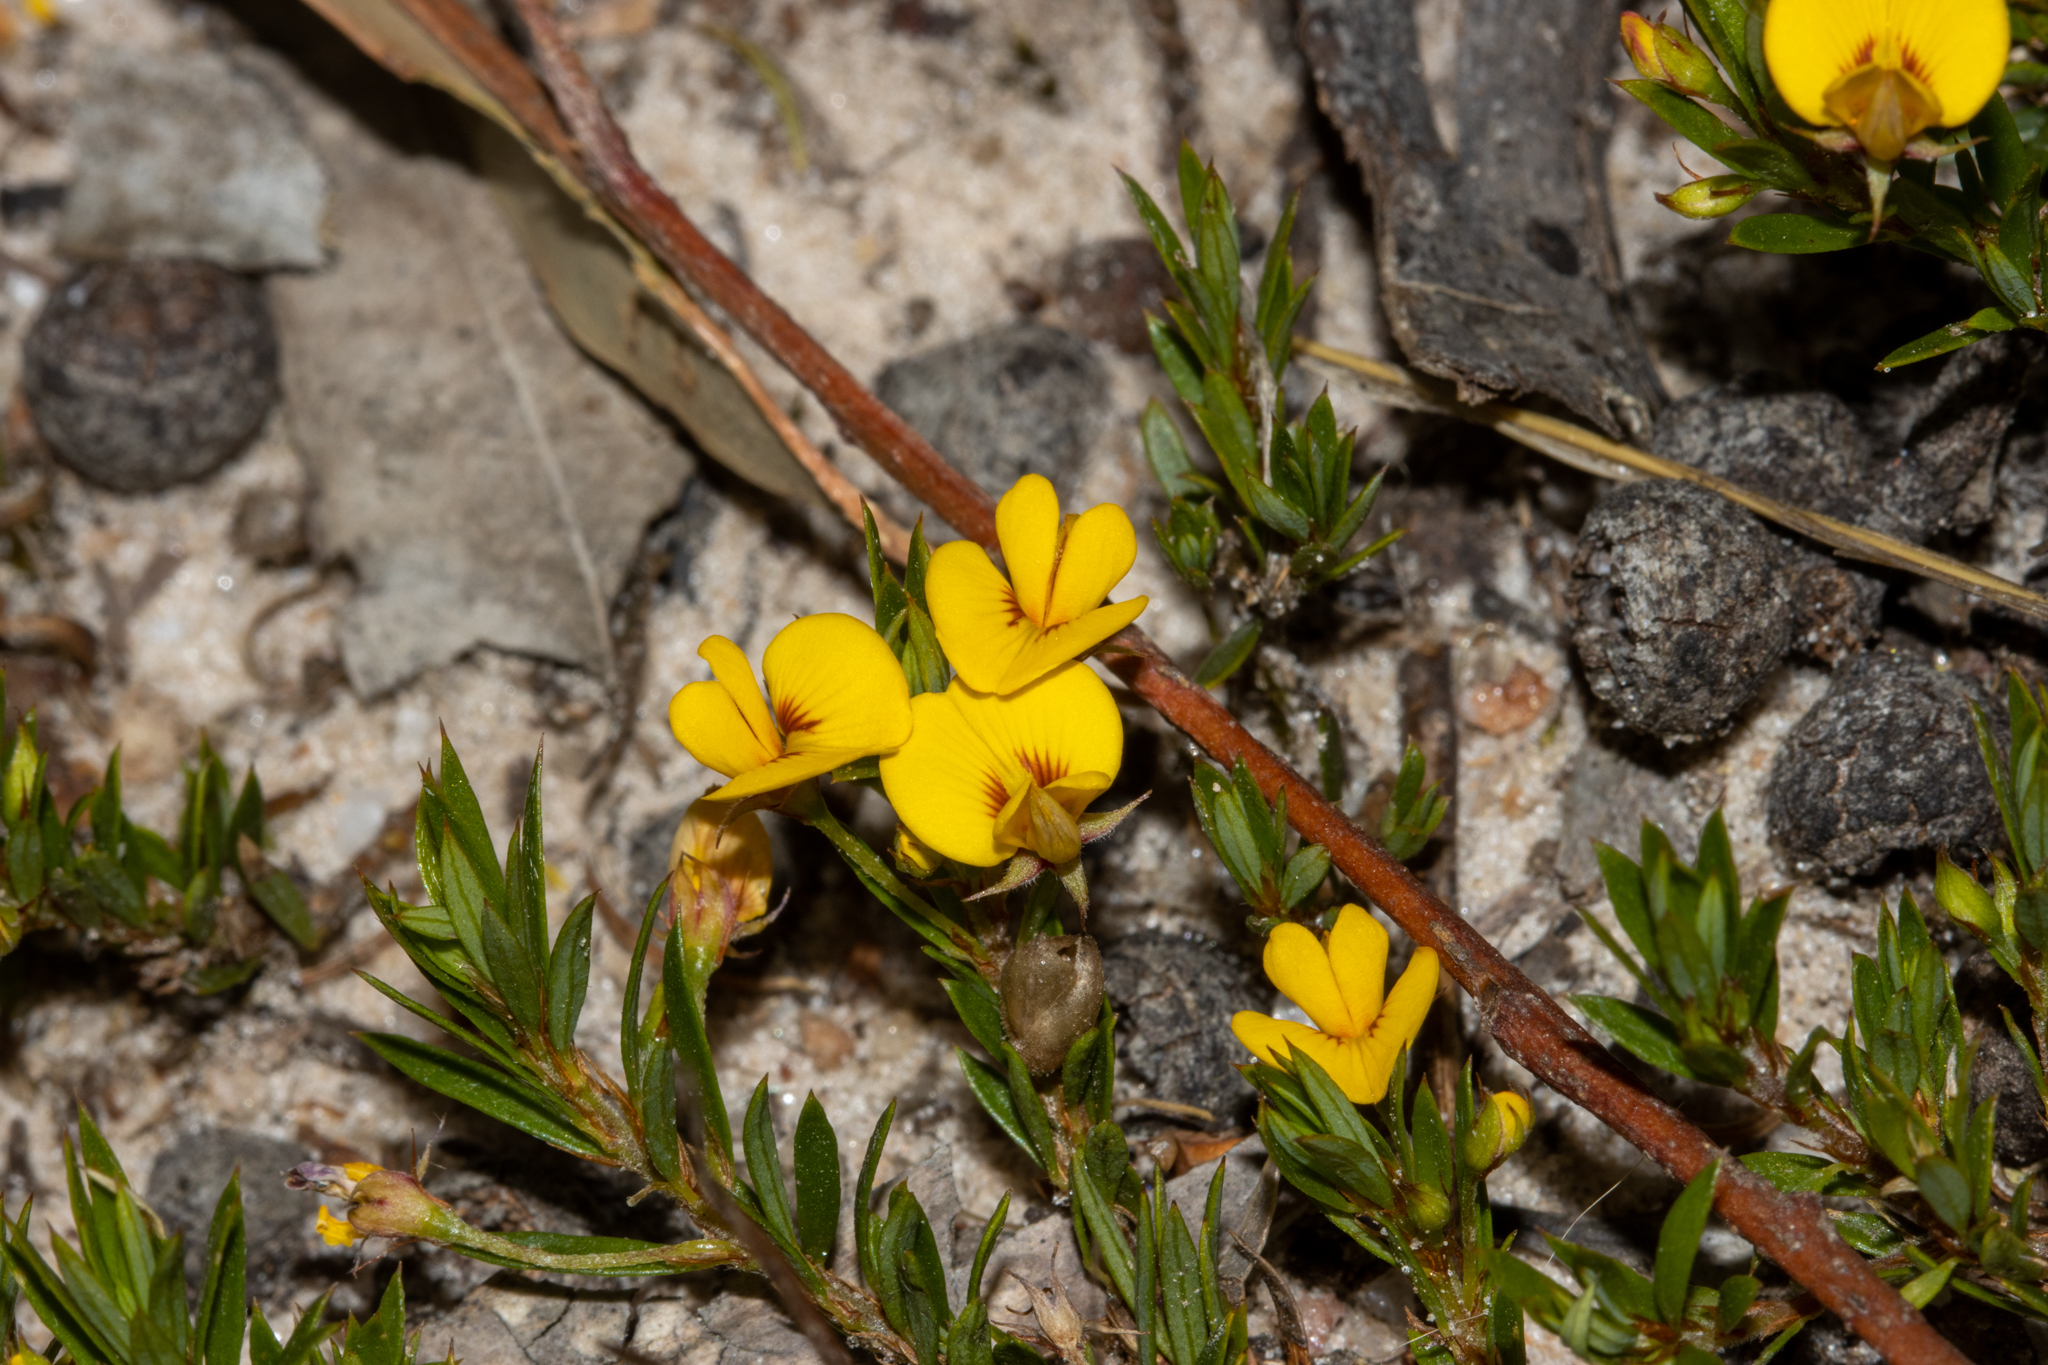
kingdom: Plantae
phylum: Tracheophyta
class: Magnoliopsida
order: Fabales
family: Fabaceae
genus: Pultenaea
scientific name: Pultenaea pedunculata
